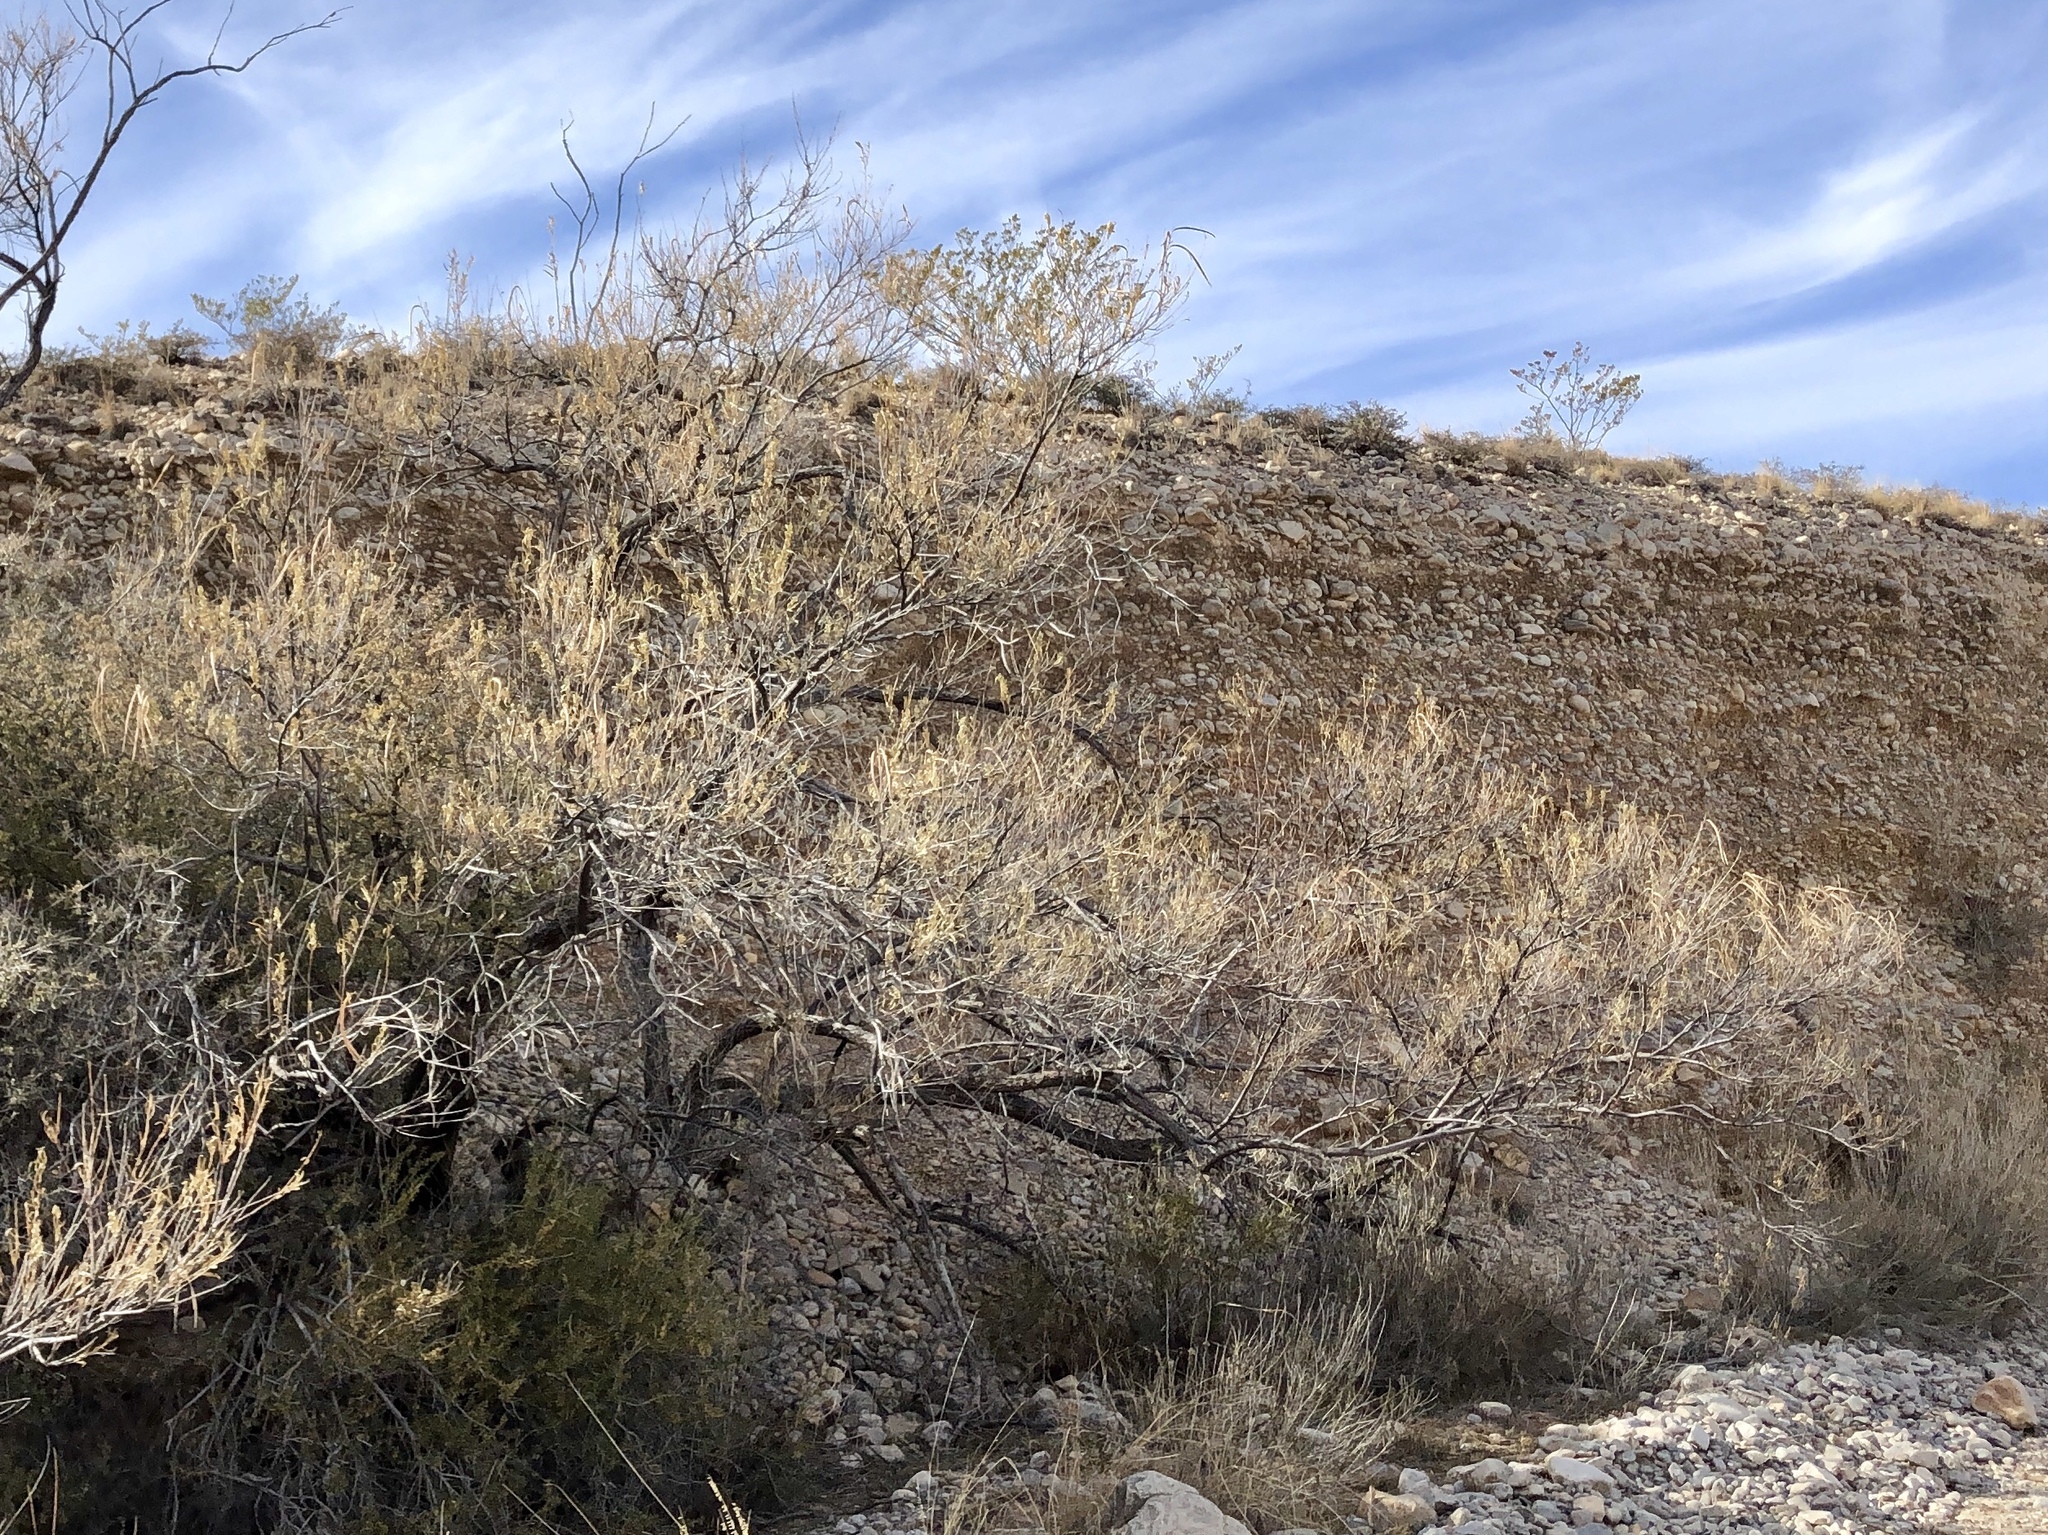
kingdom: Plantae
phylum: Tracheophyta
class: Magnoliopsida
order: Lamiales
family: Bignoniaceae
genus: Chilopsis
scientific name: Chilopsis linearis
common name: Desert-willow
